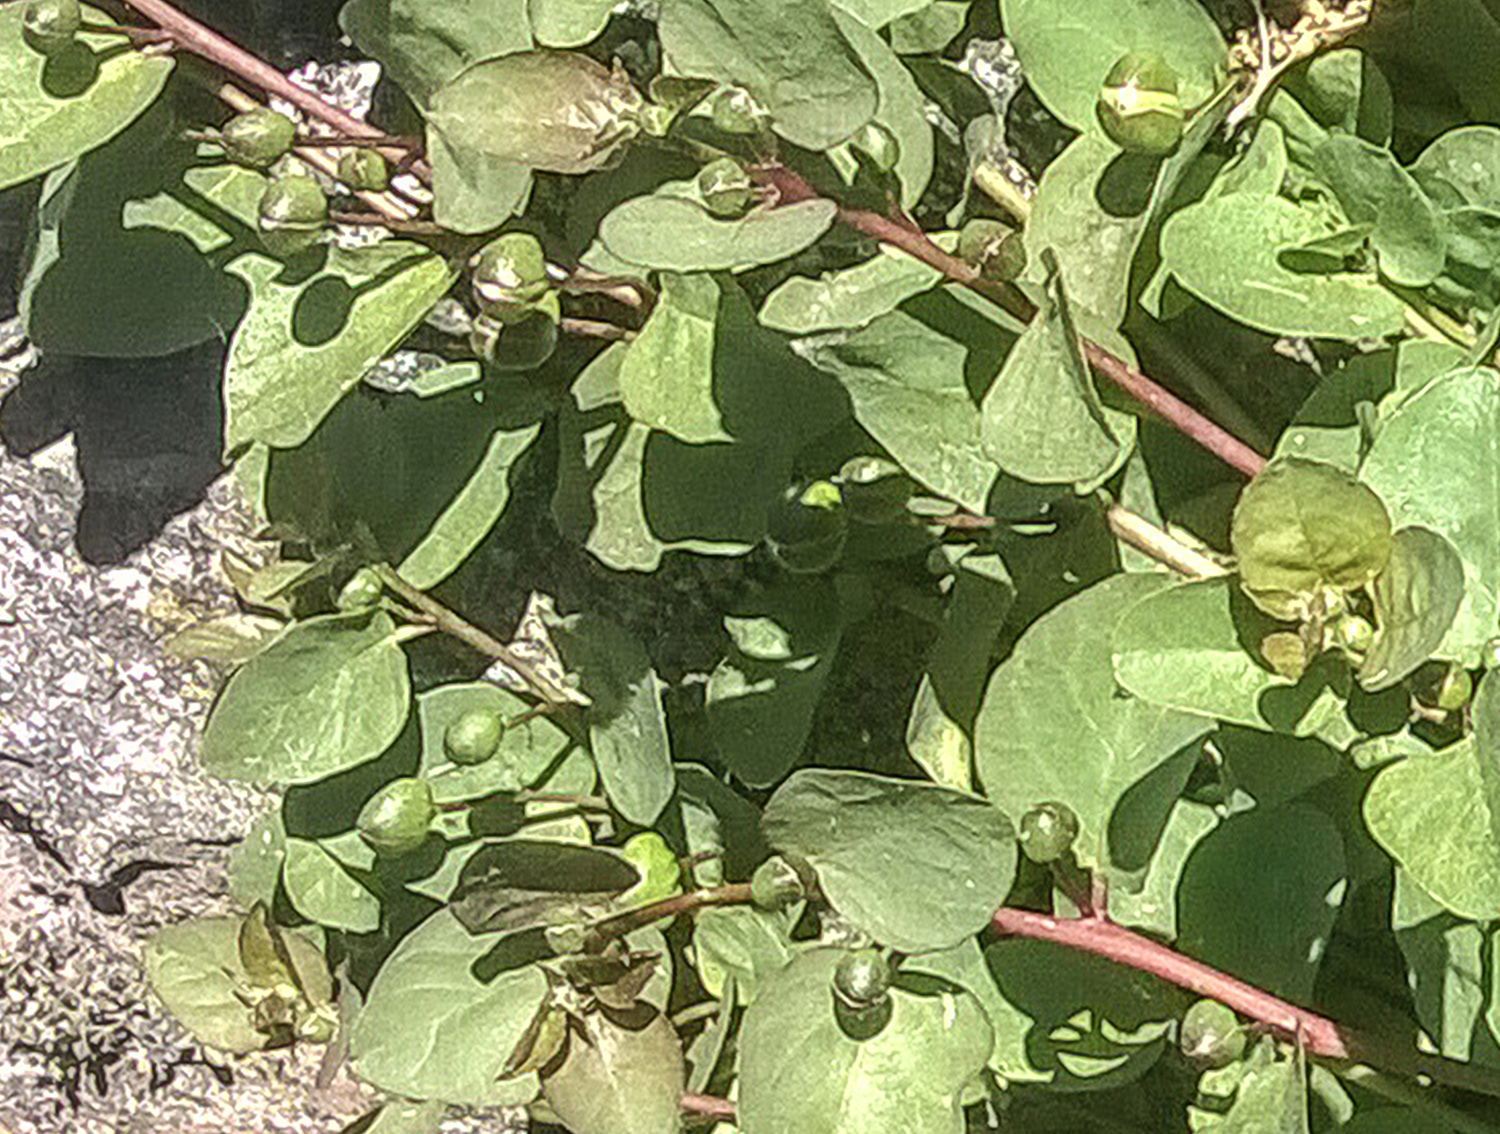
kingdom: Plantae
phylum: Tracheophyta
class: Magnoliopsida
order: Brassicales
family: Capparaceae
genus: Capparis
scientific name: Capparis spinosa
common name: Caper
